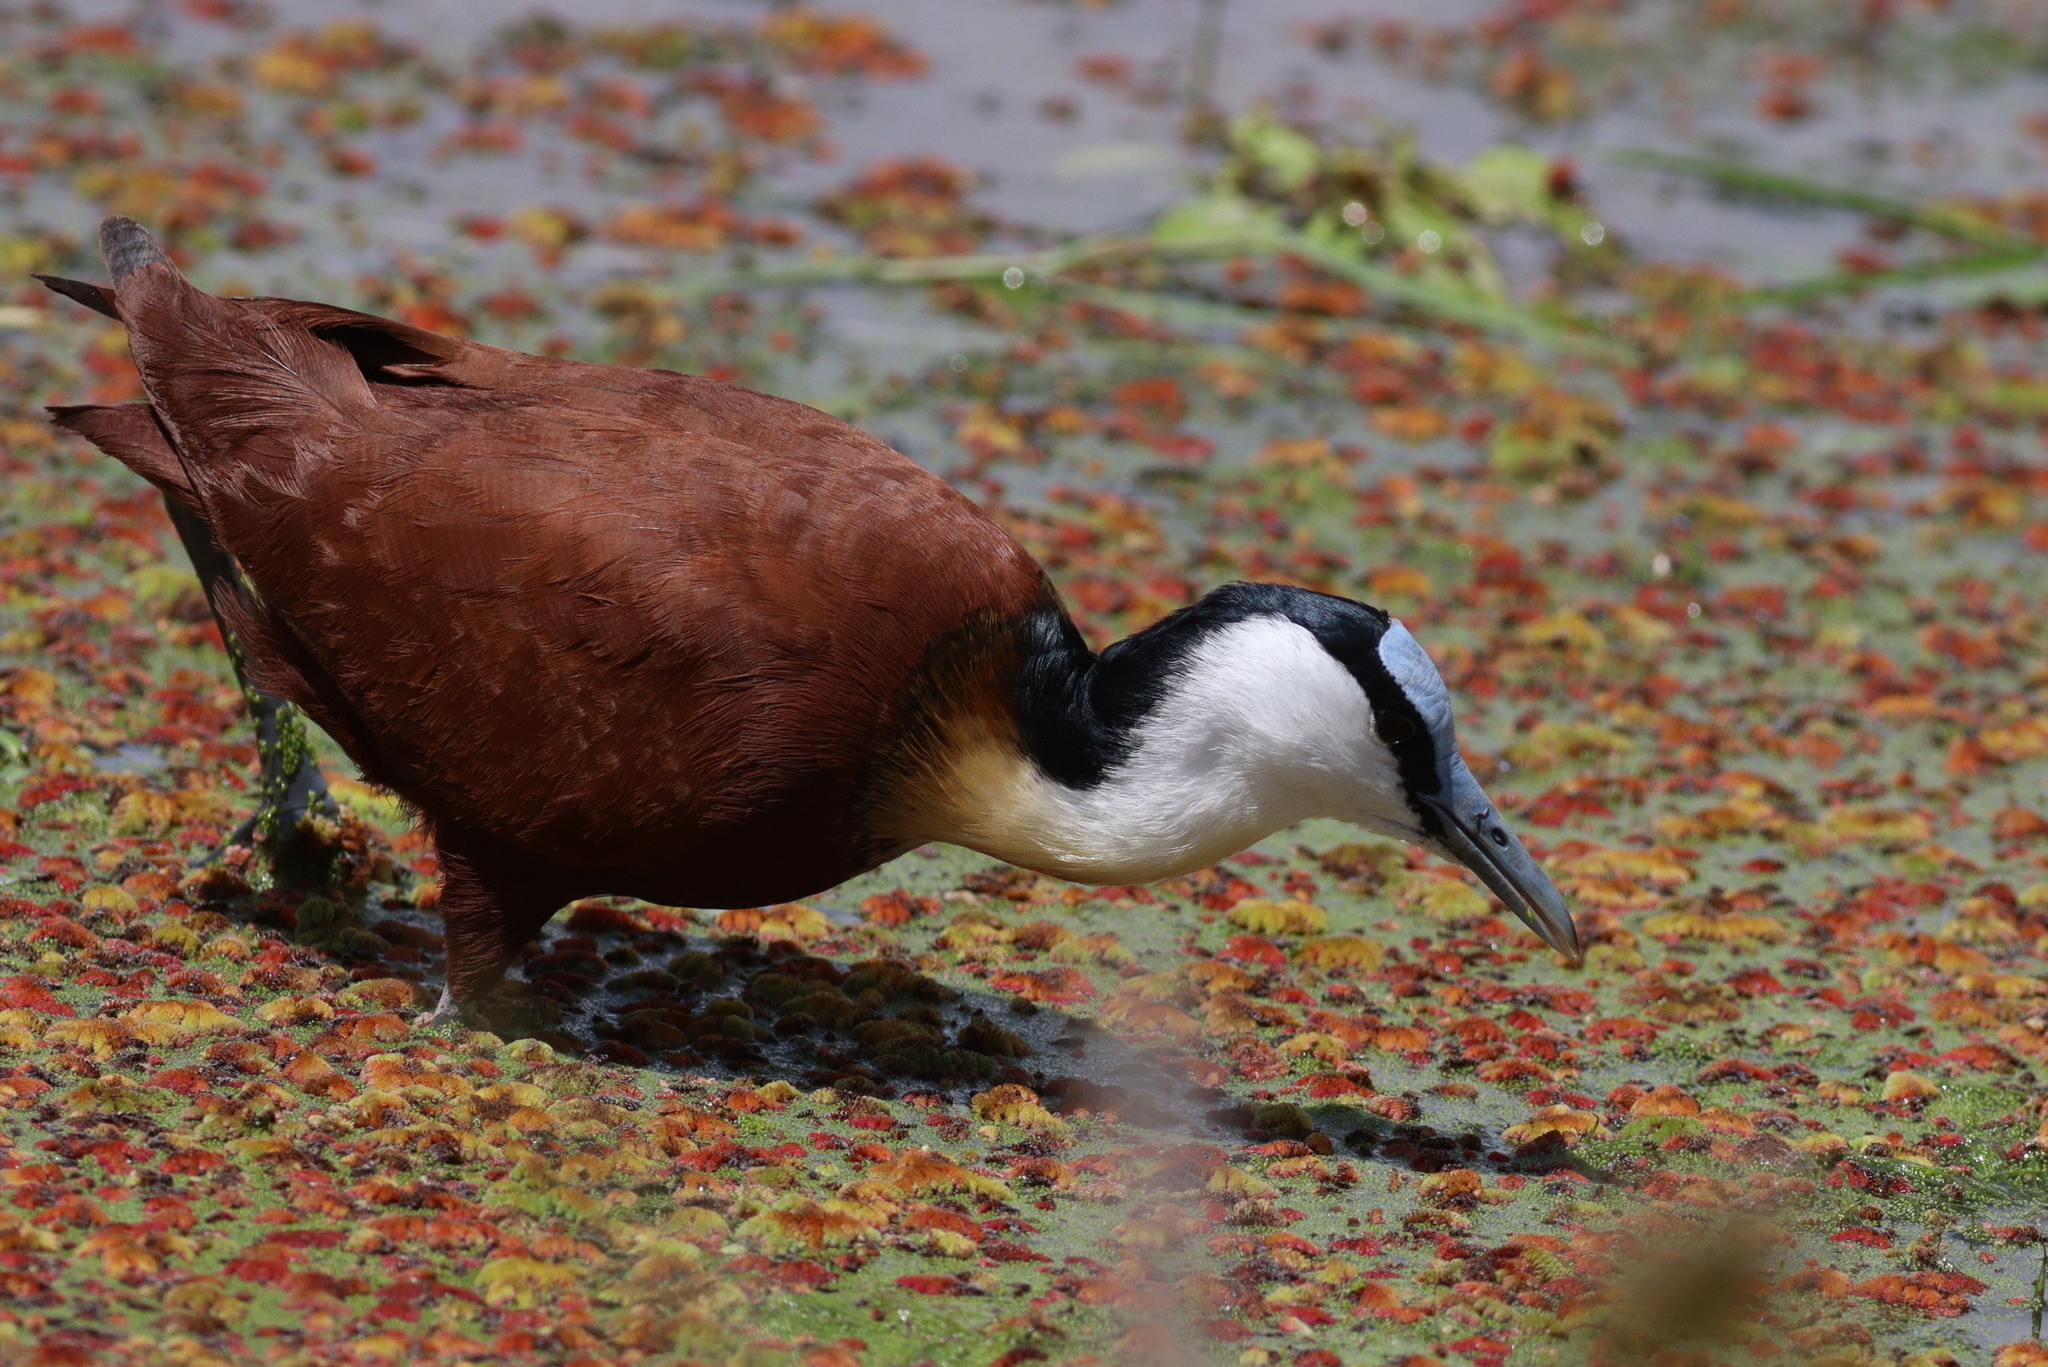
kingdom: Animalia
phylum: Chordata
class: Aves
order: Charadriiformes
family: Jacanidae
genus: Actophilornis
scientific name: Actophilornis africanus
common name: African jacana
